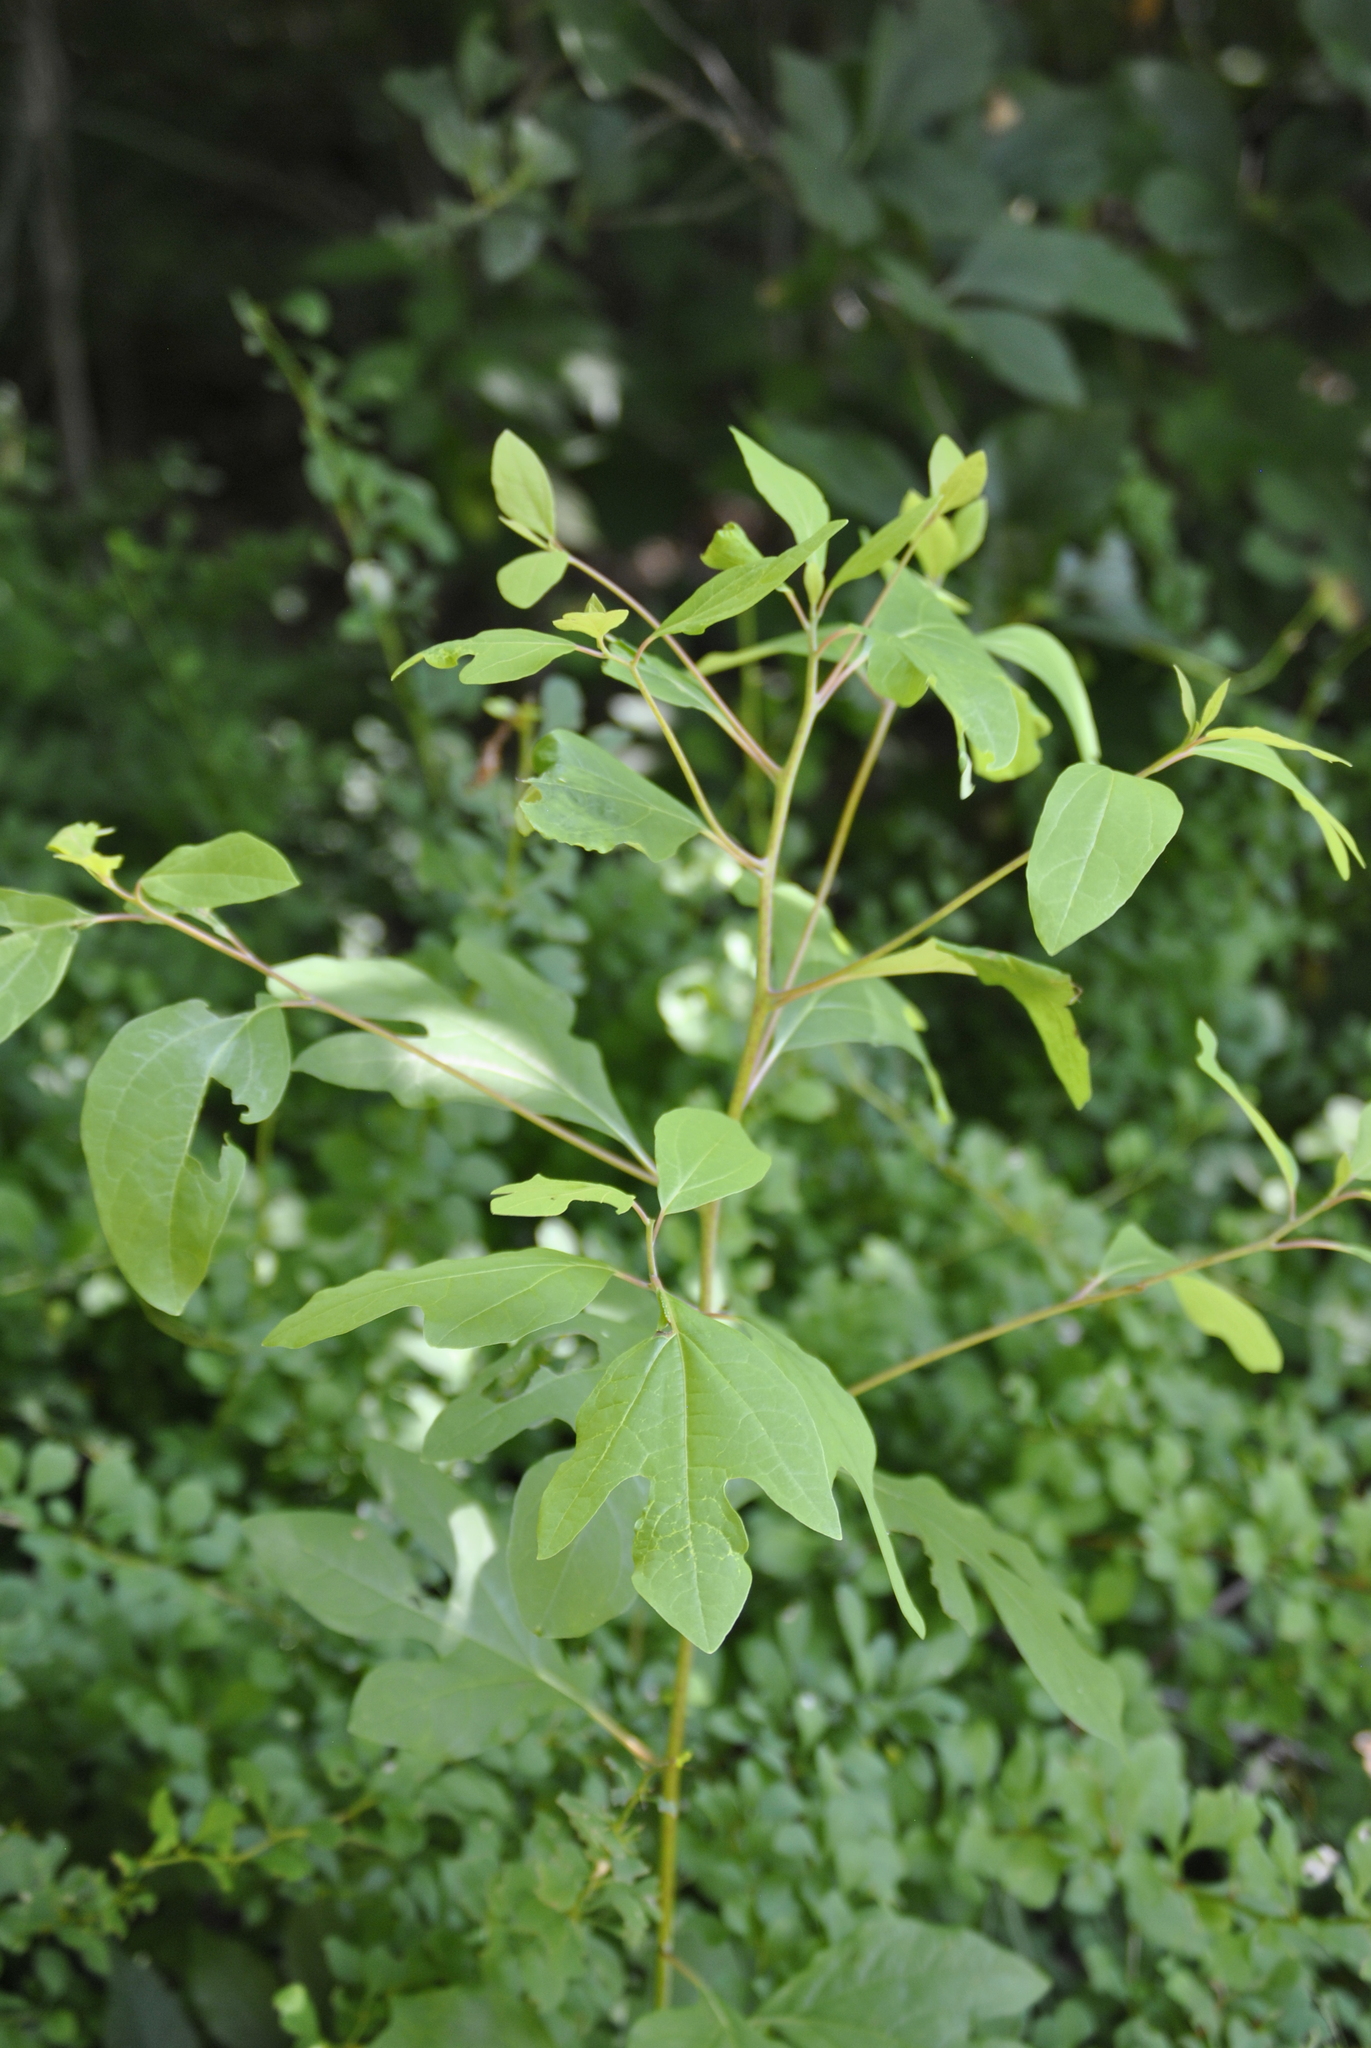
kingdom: Plantae
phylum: Tracheophyta
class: Magnoliopsida
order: Laurales
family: Lauraceae
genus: Sassafras
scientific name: Sassafras albidum
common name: Sassafras
